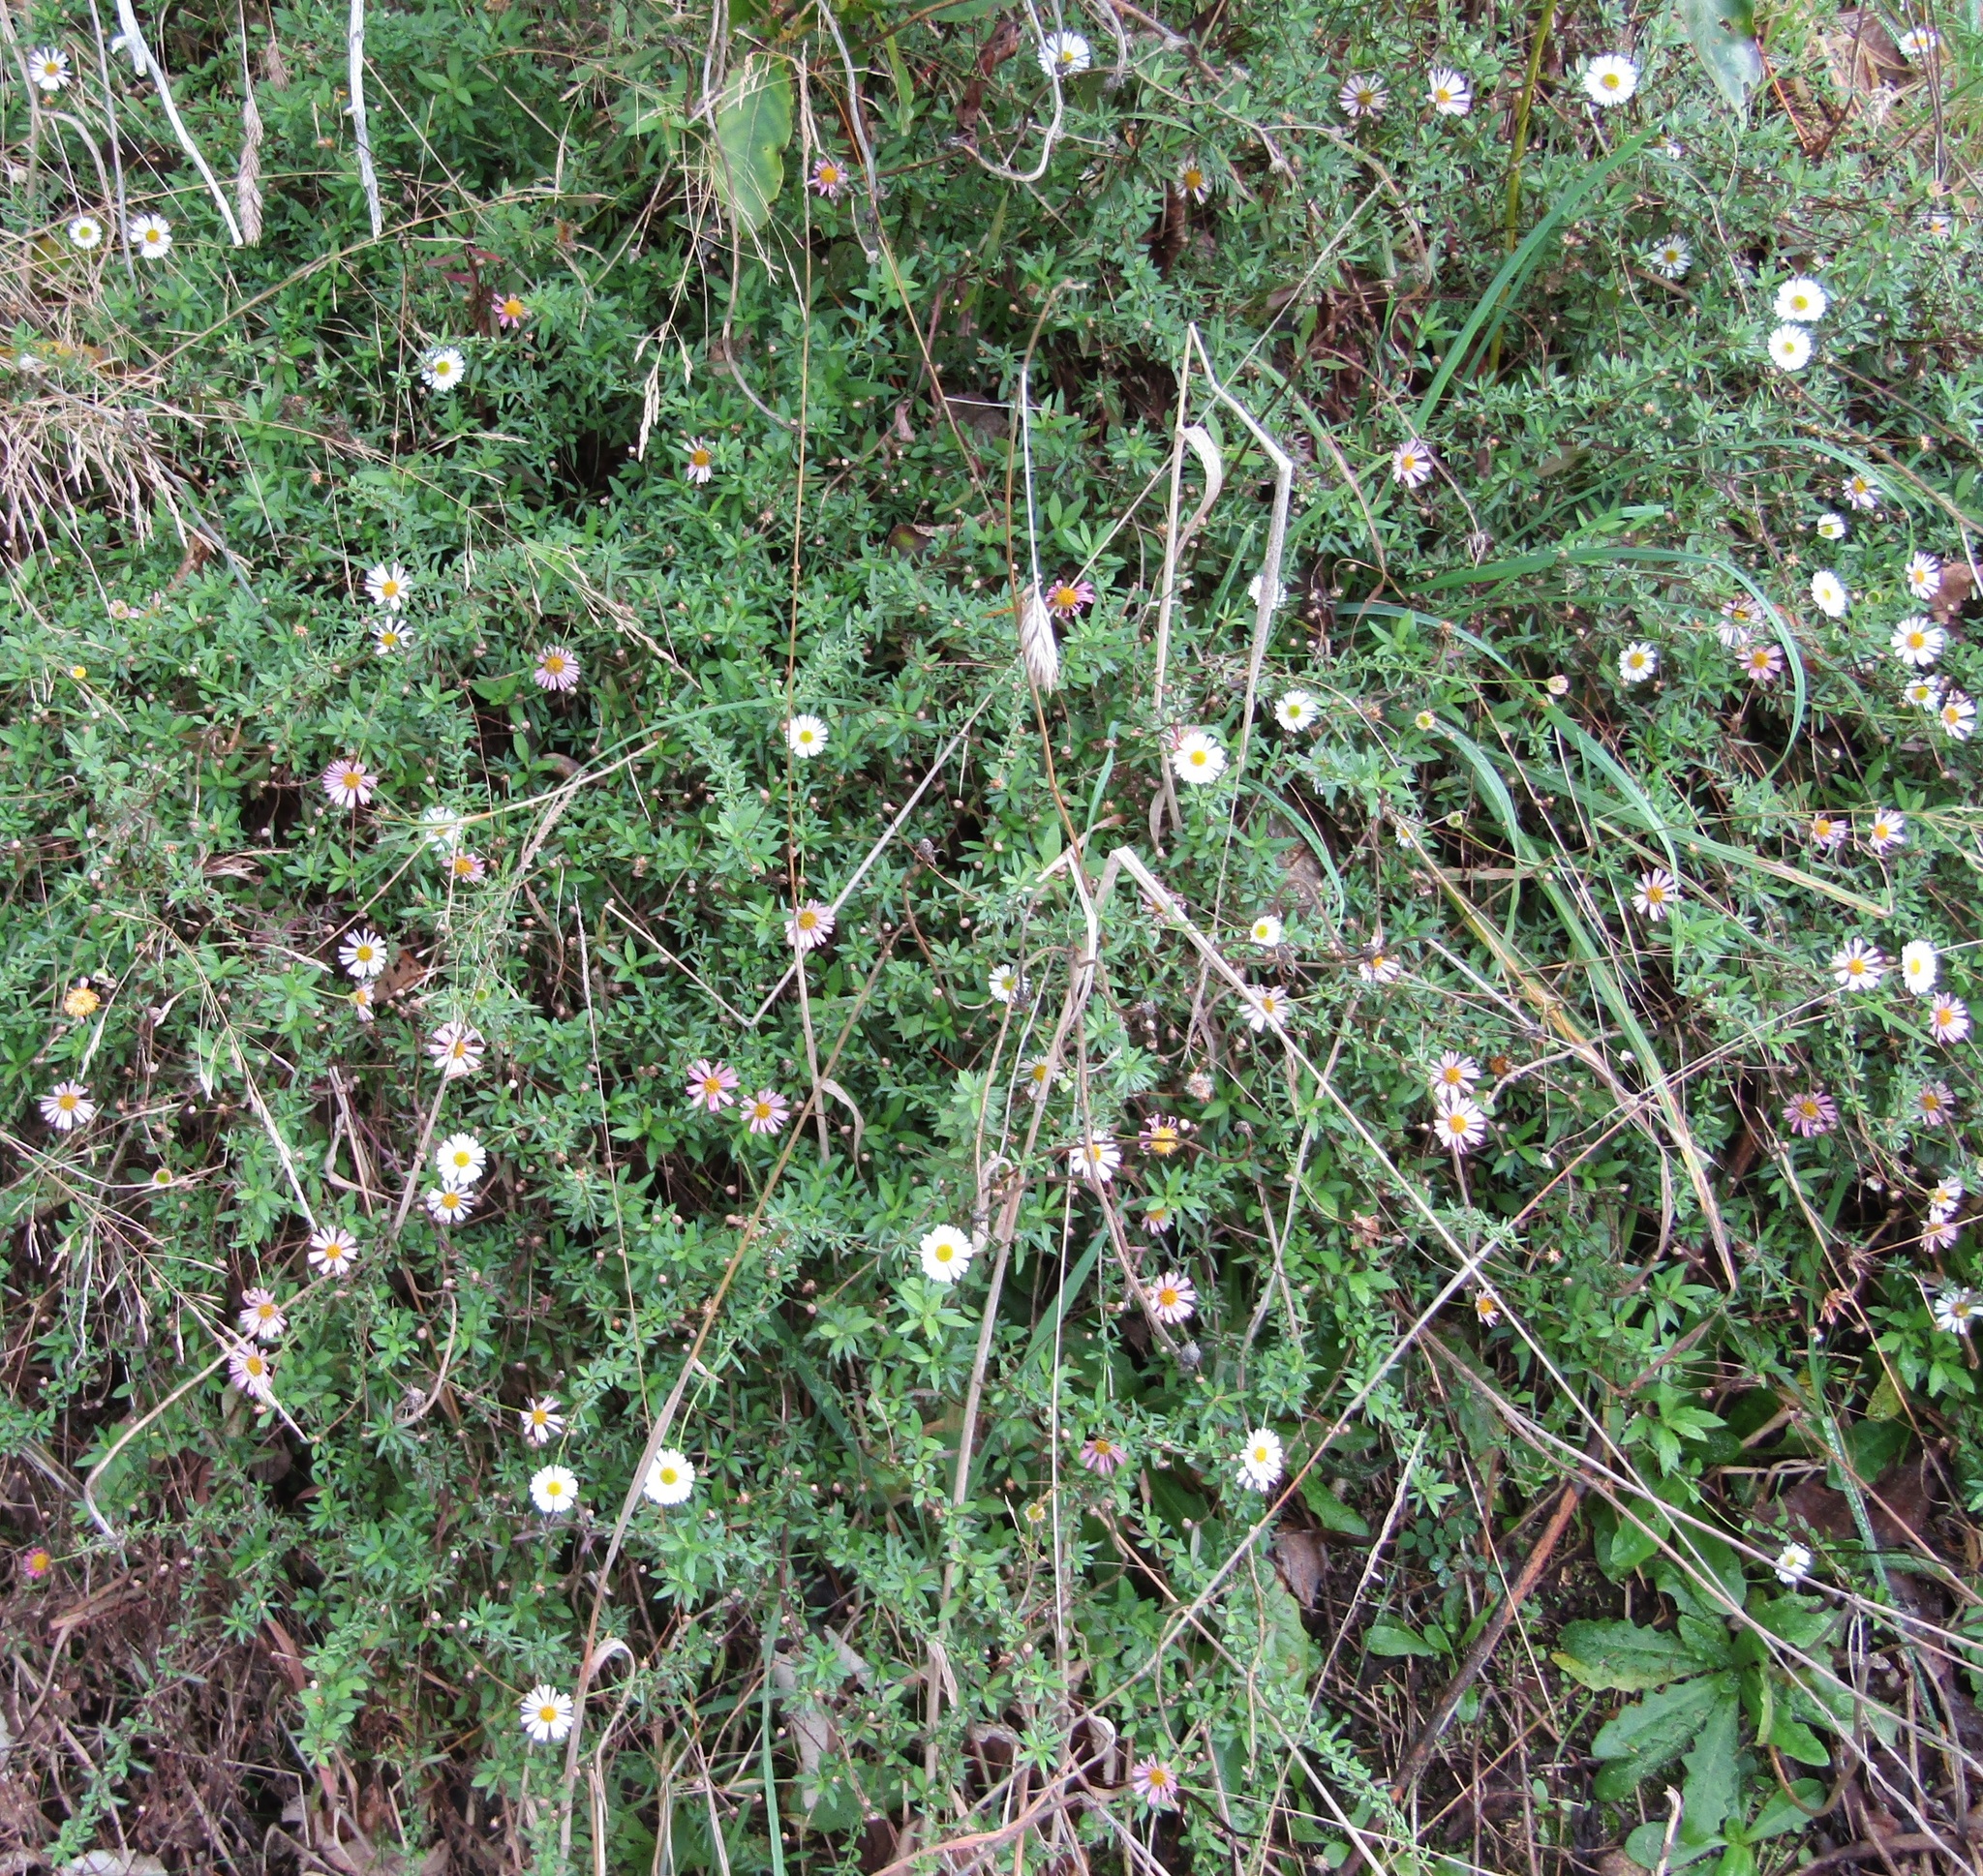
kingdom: Plantae
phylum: Tracheophyta
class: Magnoliopsida
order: Asterales
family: Asteraceae
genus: Erigeron
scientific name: Erigeron karvinskianus
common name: Mexican fleabane
